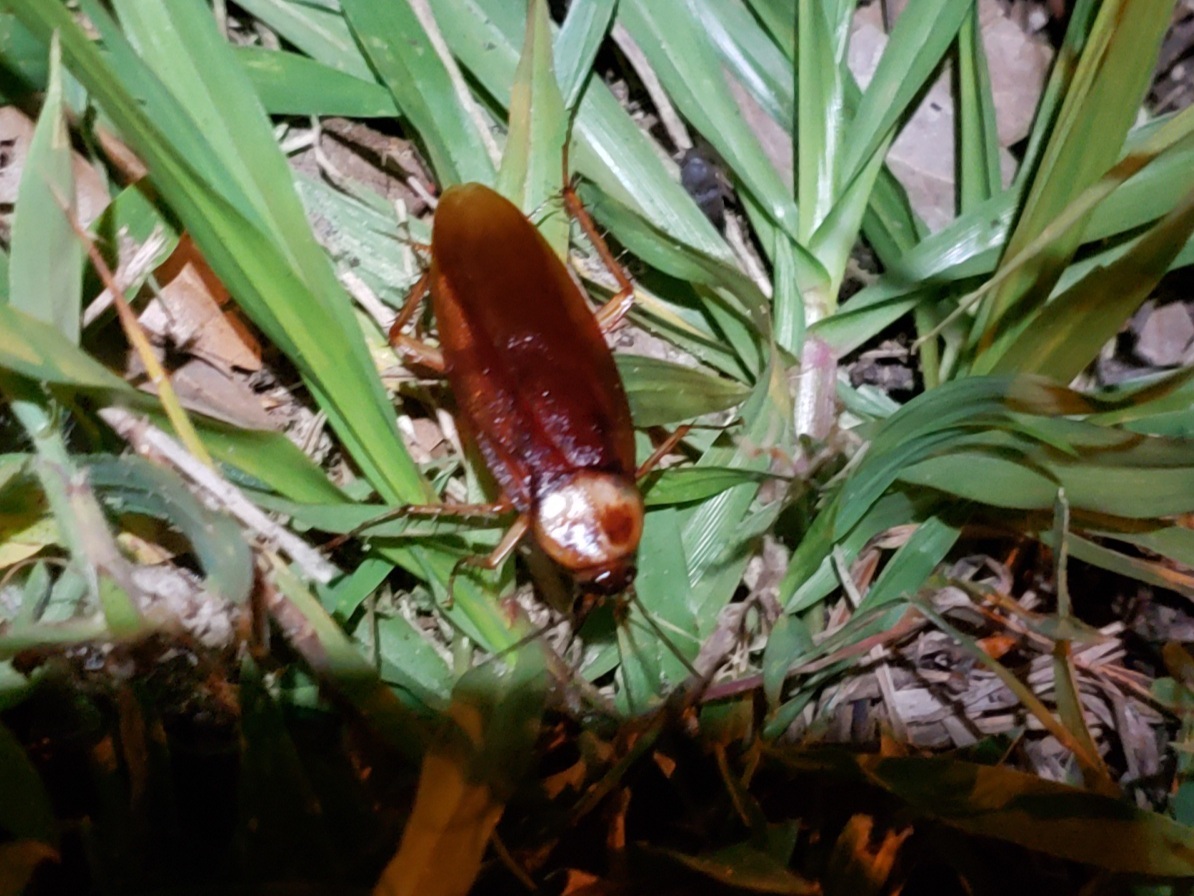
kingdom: Animalia
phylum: Arthropoda
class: Insecta
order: Blattodea
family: Blattidae
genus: Periplaneta
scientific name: Periplaneta americana
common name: American cockroach
